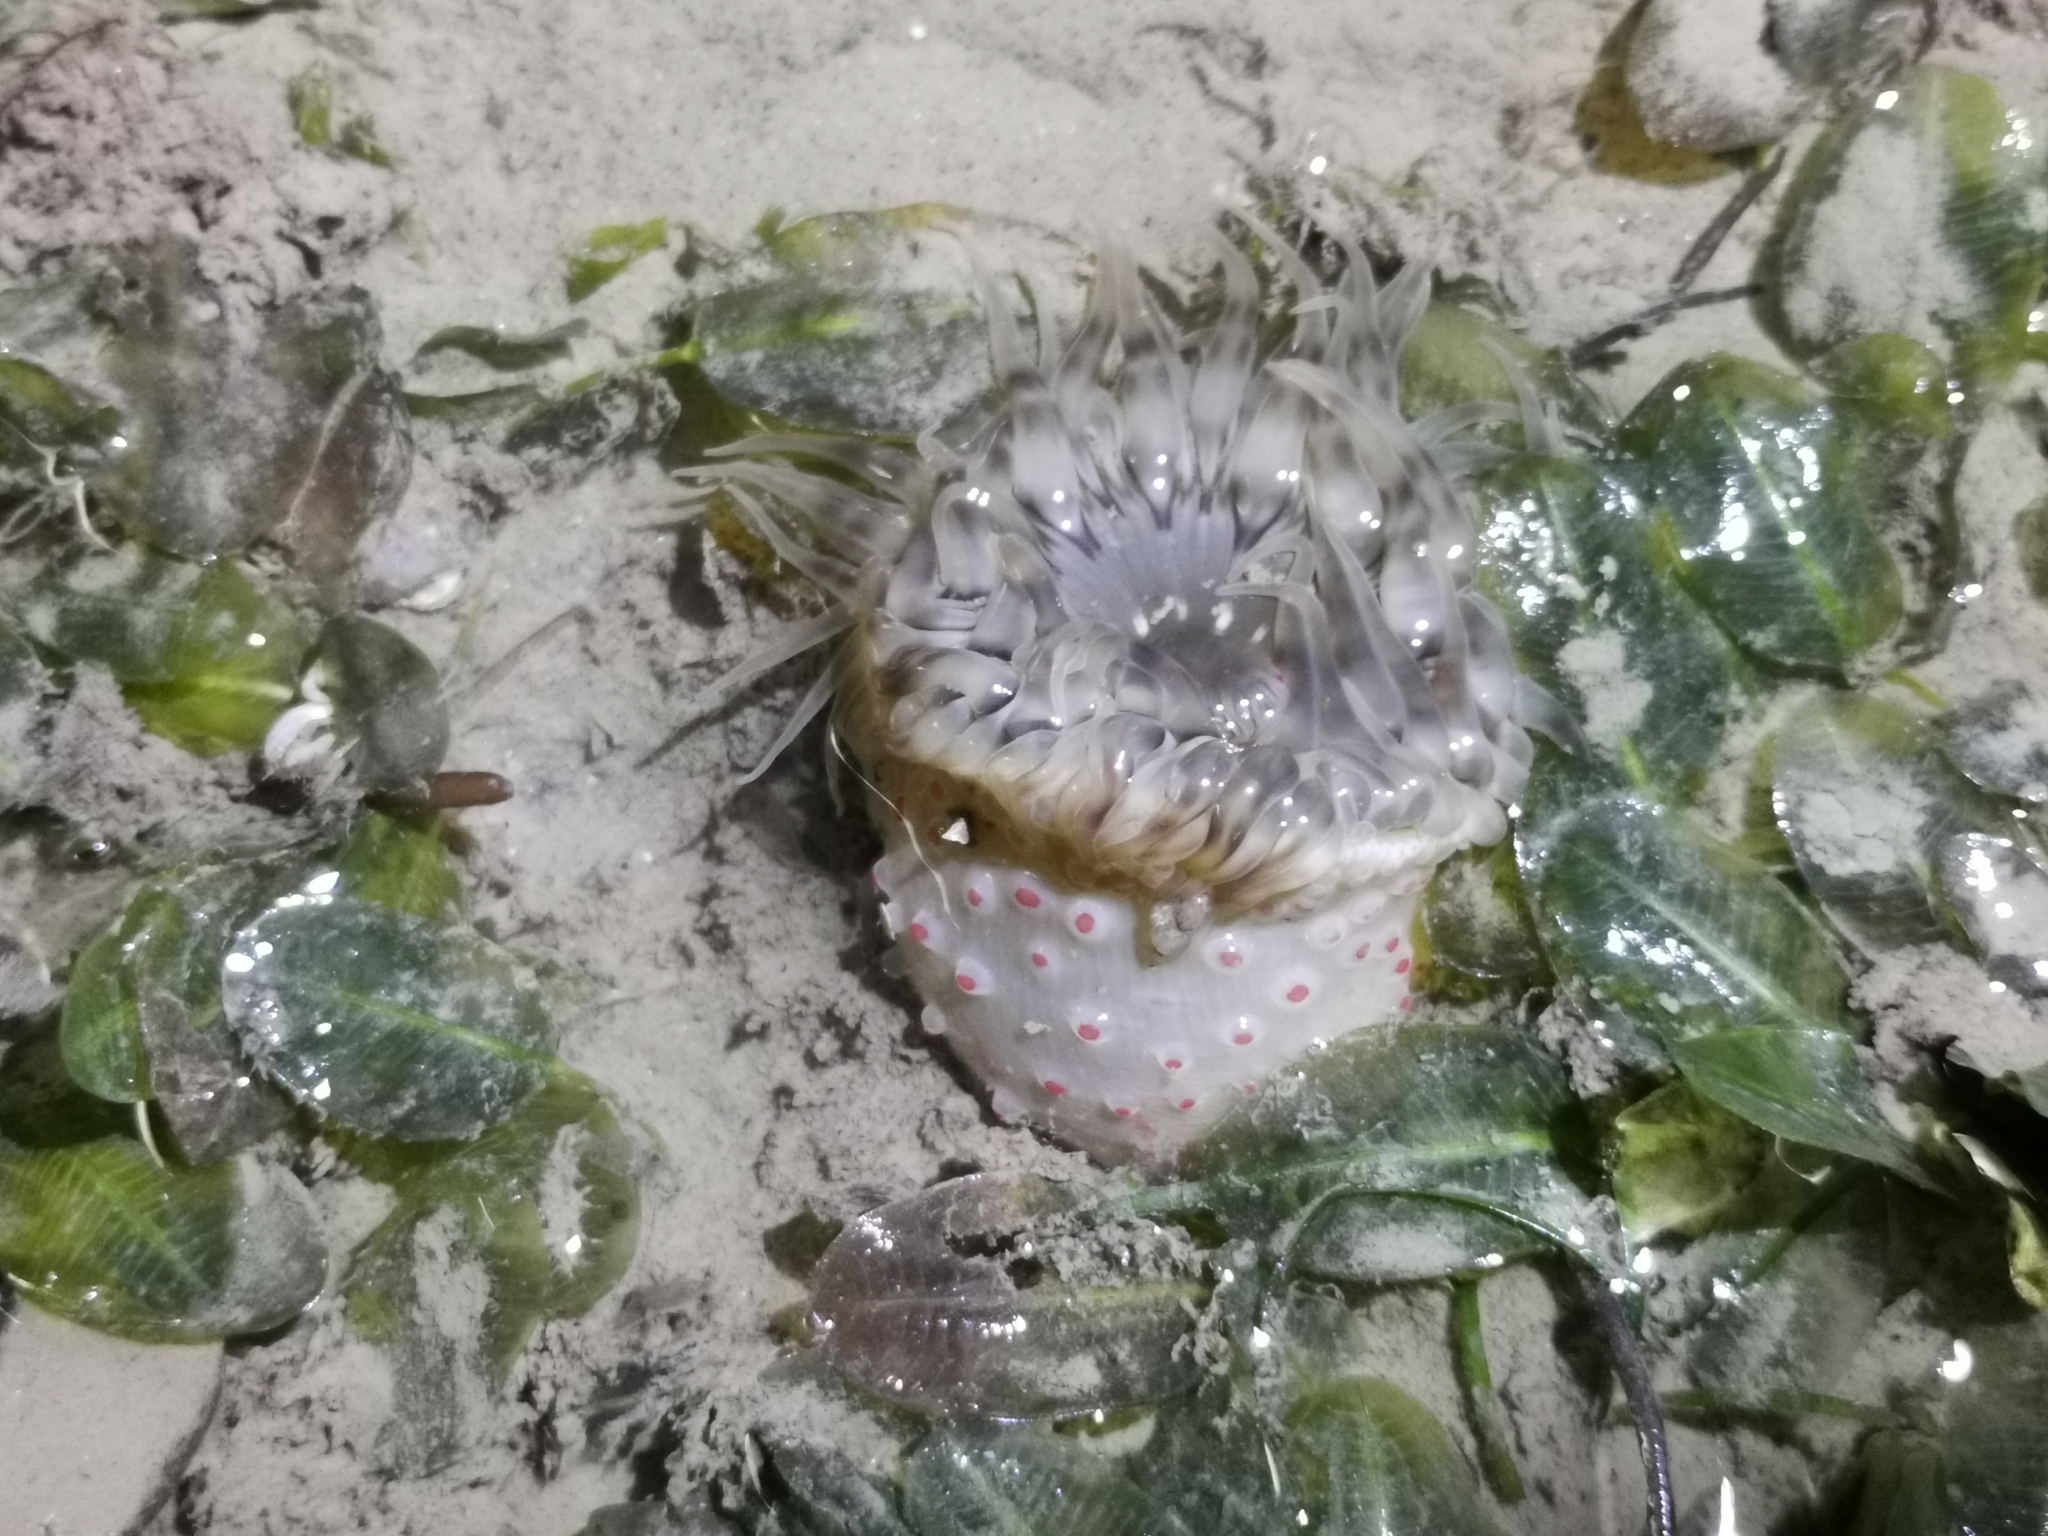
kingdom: Animalia
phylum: Cnidaria
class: Anthozoa
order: Actiniaria
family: Actiniidae
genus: Condylactis
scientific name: Condylactis
